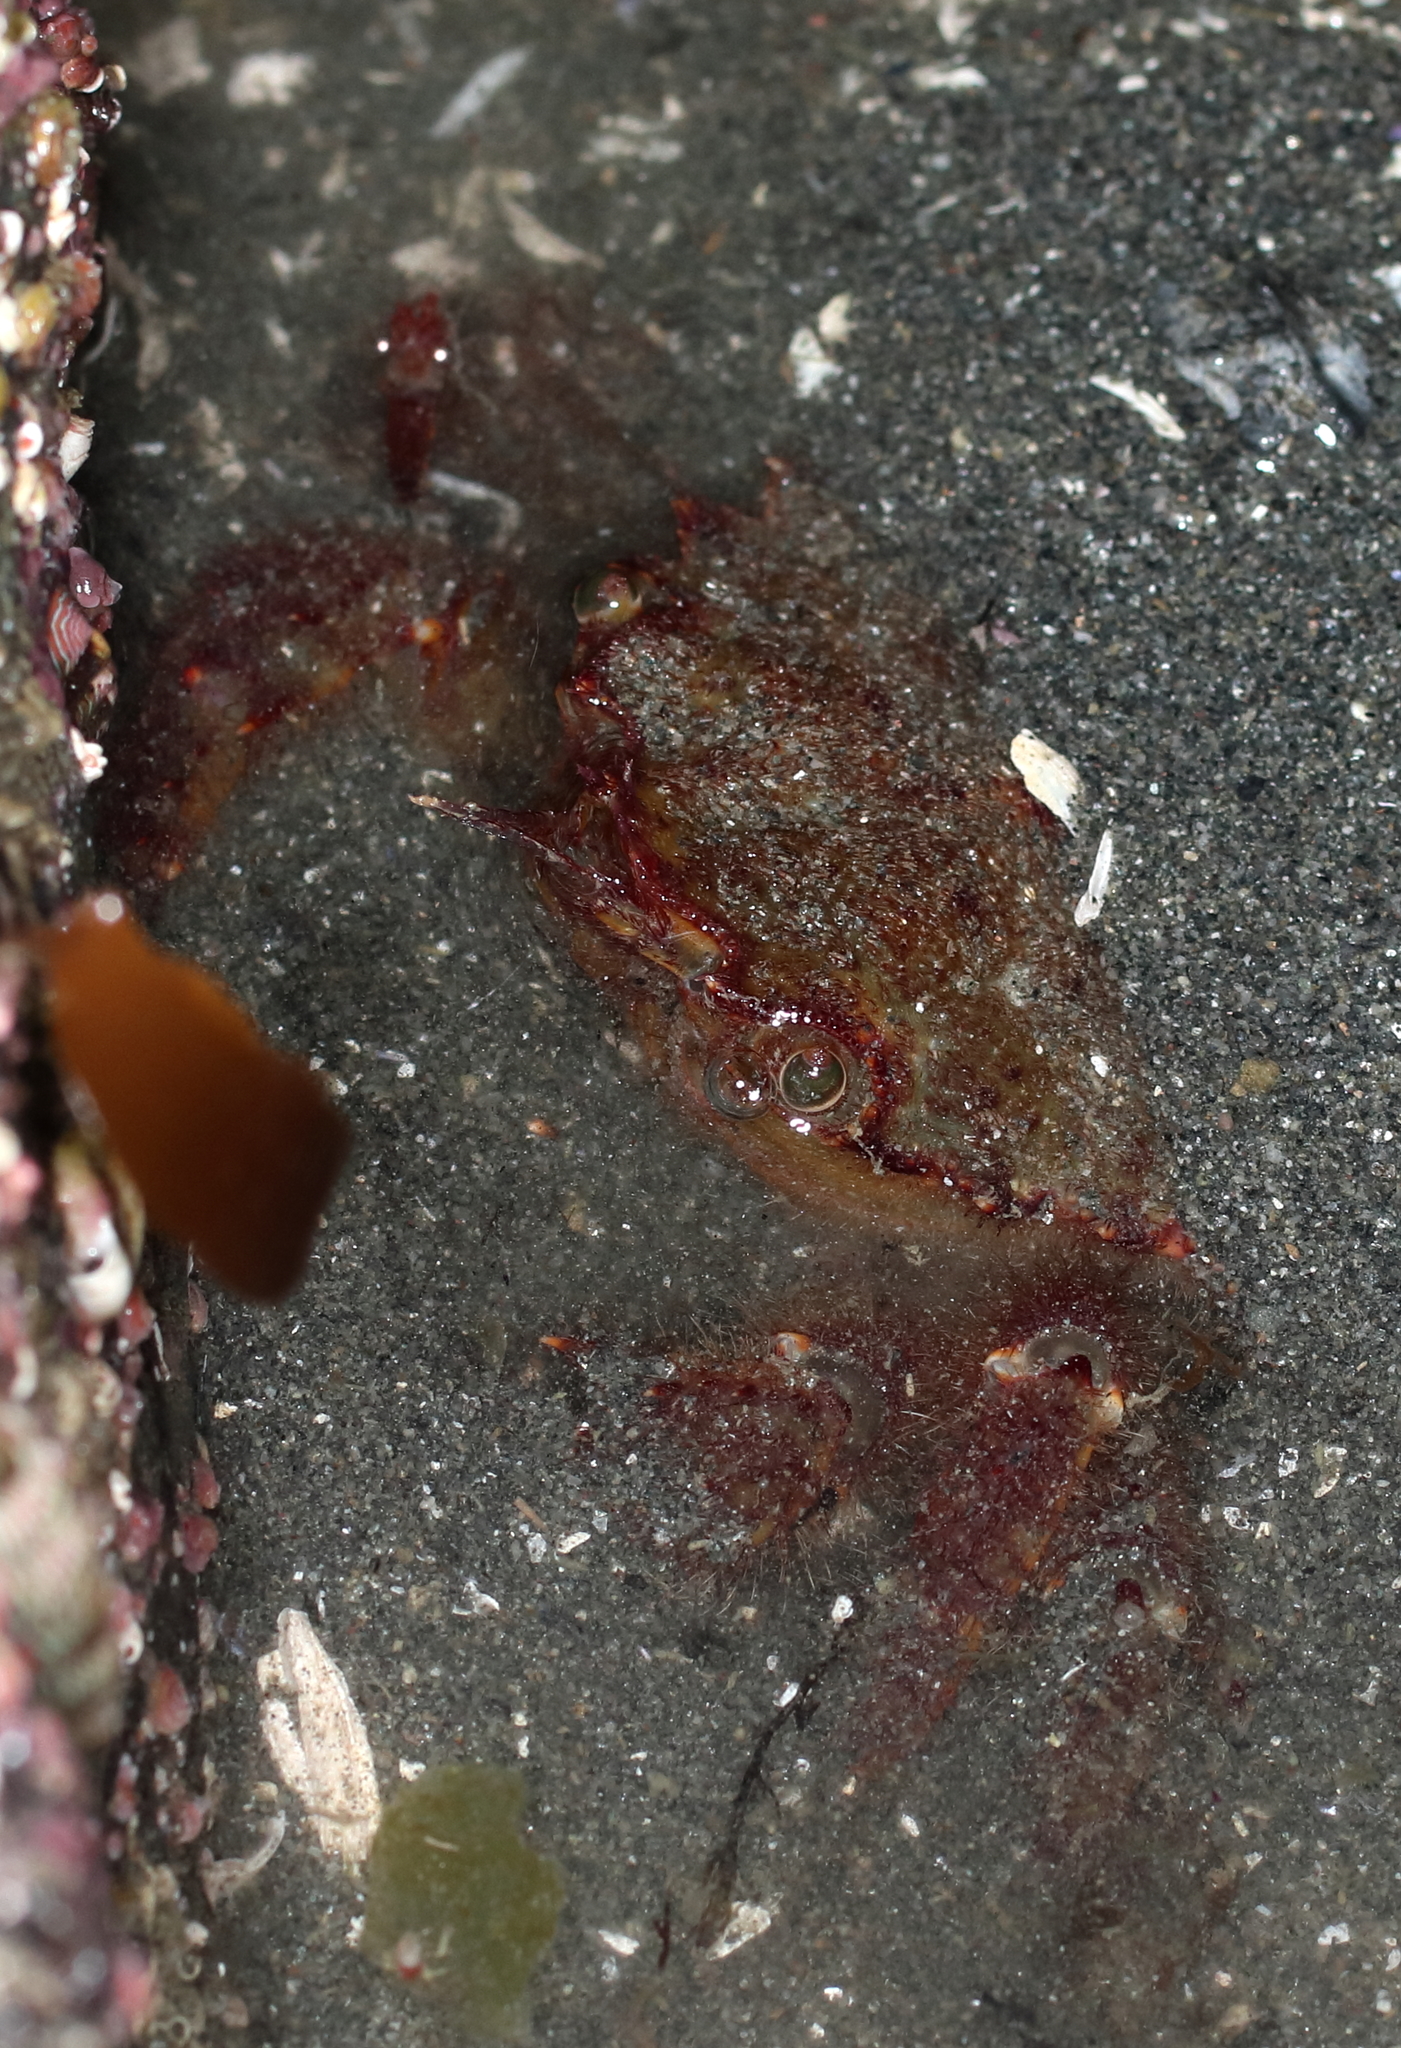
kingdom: Animalia
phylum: Arthropoda
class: Malacostraca
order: Decapoda
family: Cheiragonidae
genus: Telmessus
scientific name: Telmessus cheiragonus
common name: Helmet crab
